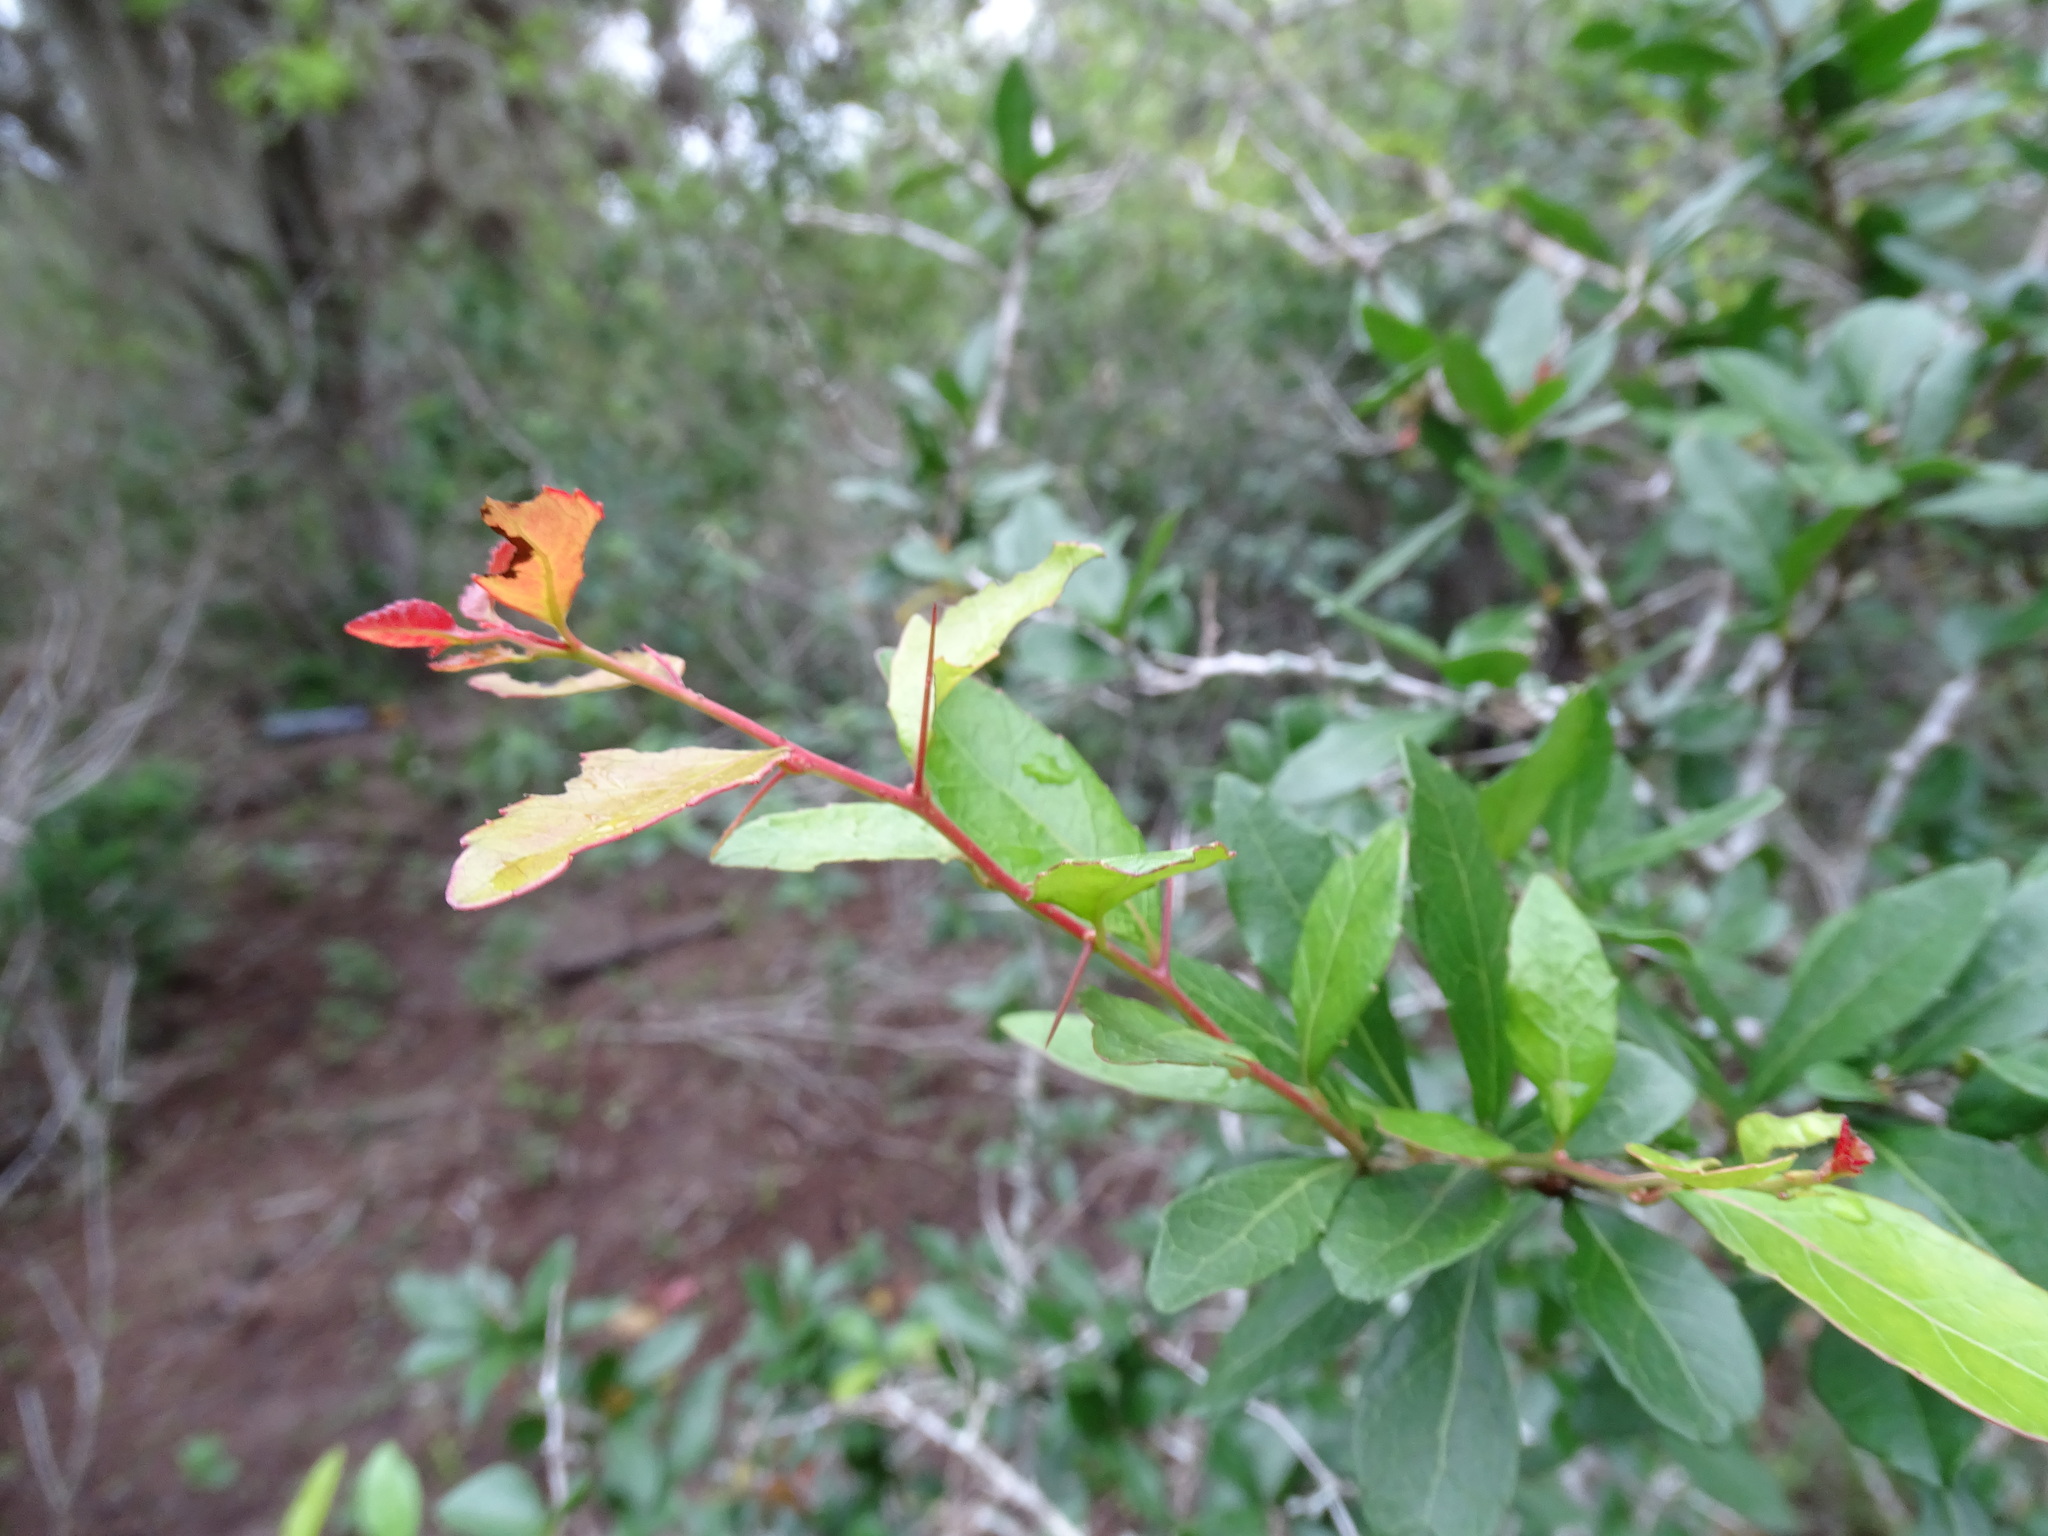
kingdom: Plantae
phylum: Tracheophyta
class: Magnoliopsida
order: Malpighiales
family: Salicaceae
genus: Xylosma
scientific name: Xylosma flexuosa
